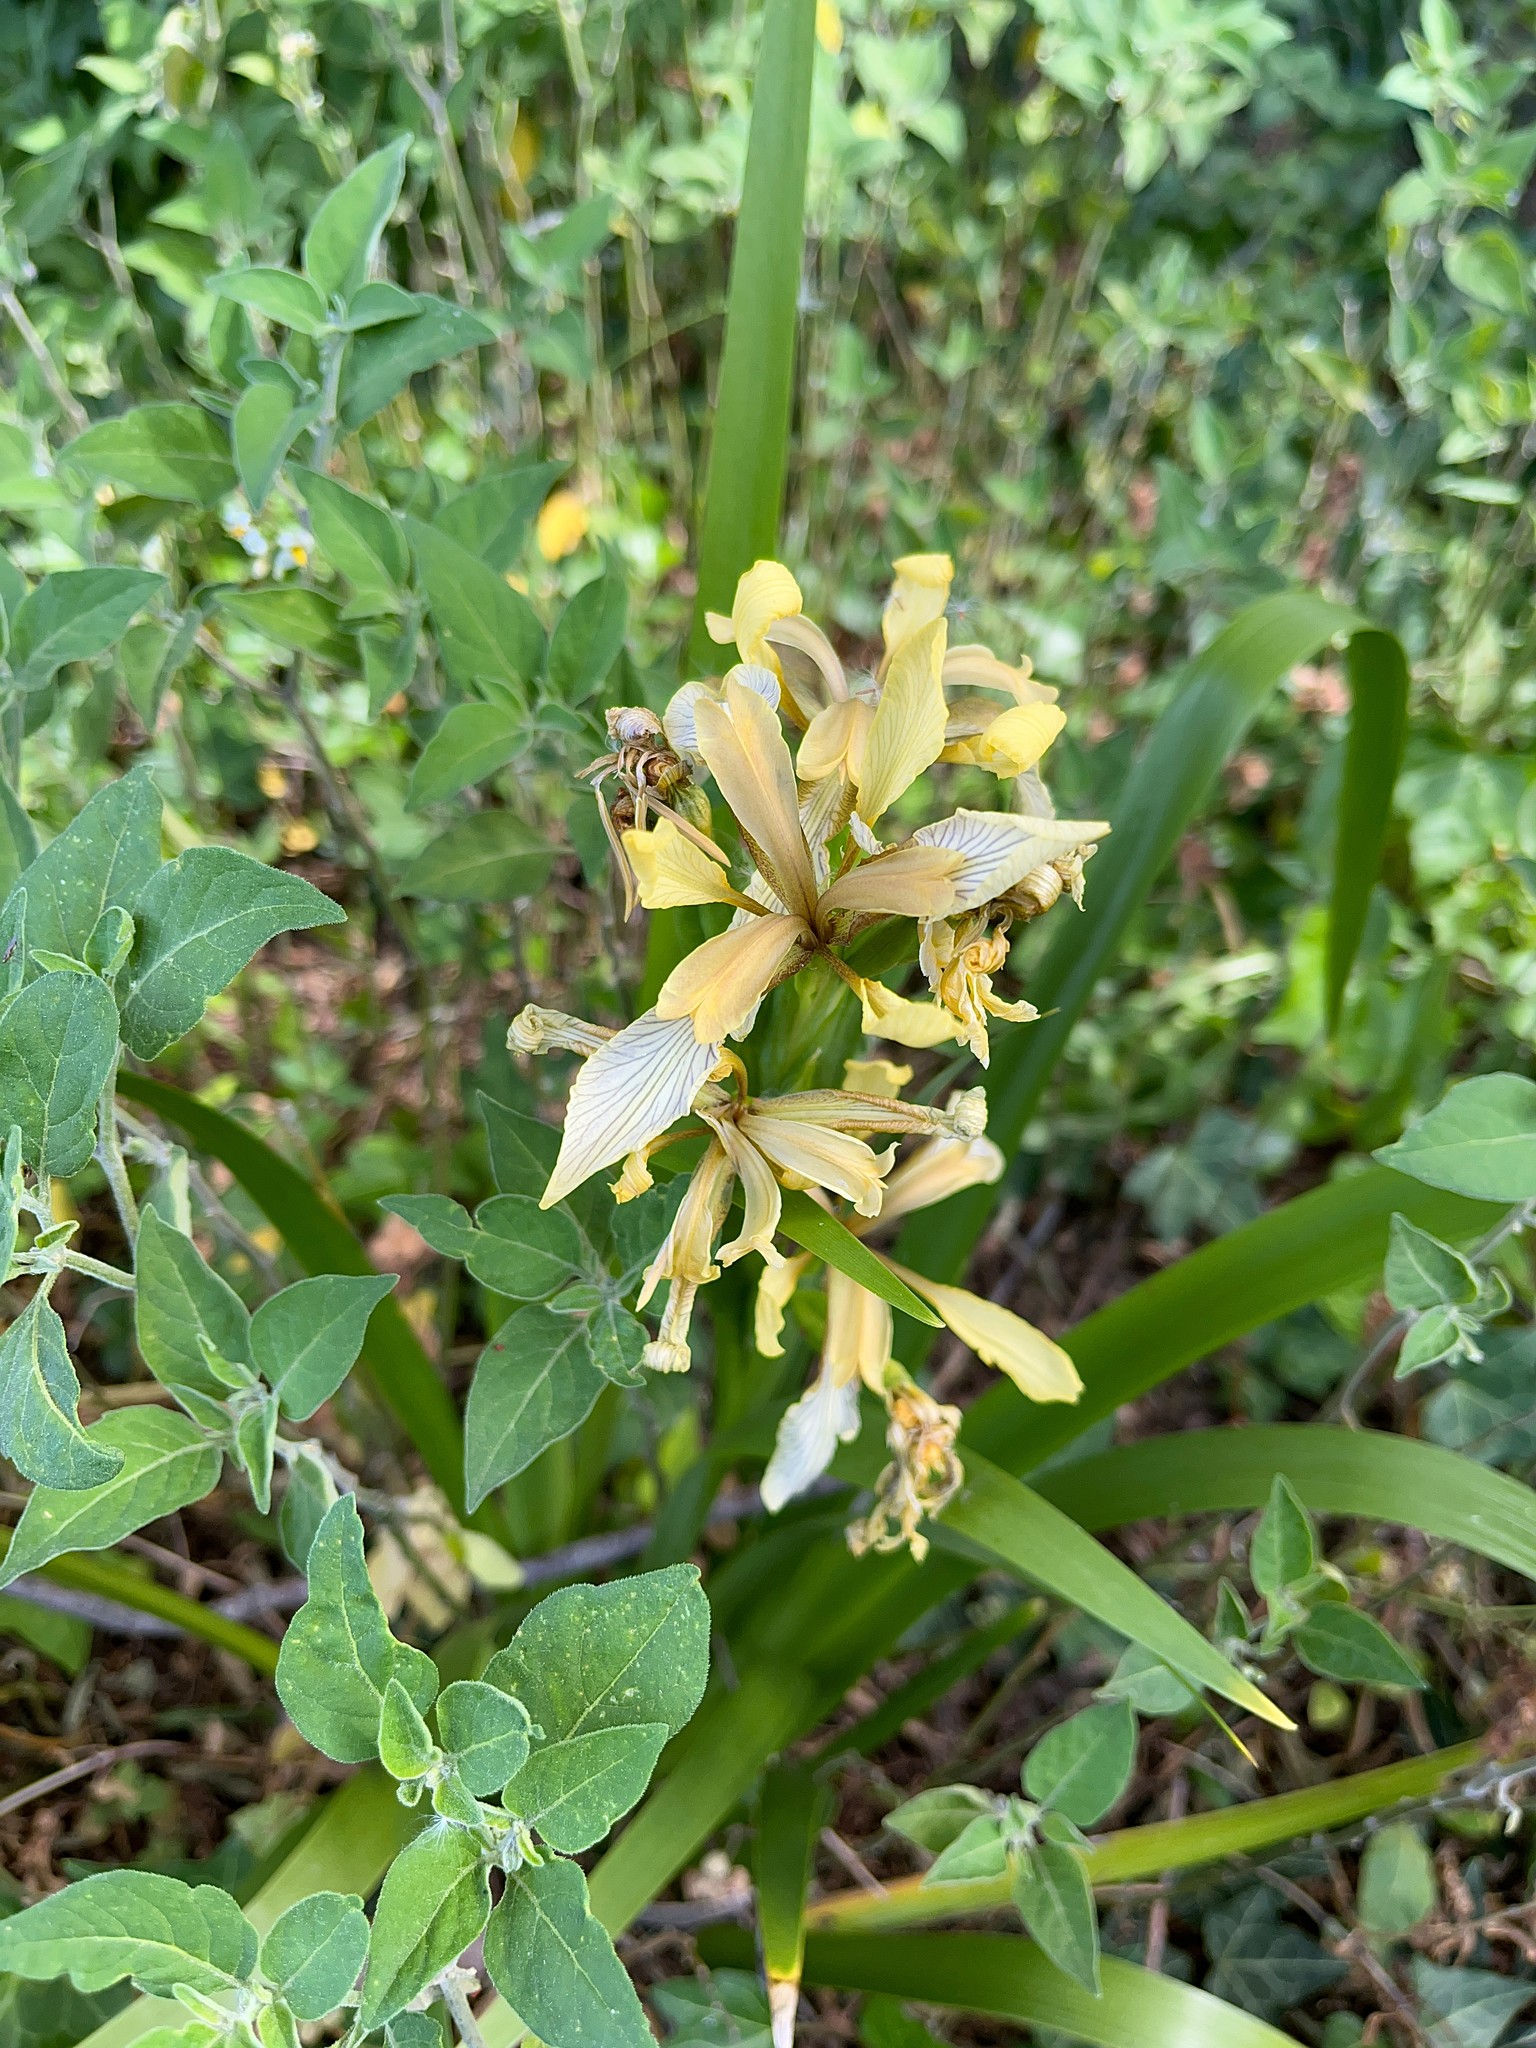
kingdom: Plantae
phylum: Tracheophyta
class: Liliopsida
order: Asparagales
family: Iridaceae
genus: Iris
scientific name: Iris foetidissima
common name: Stinking iris
